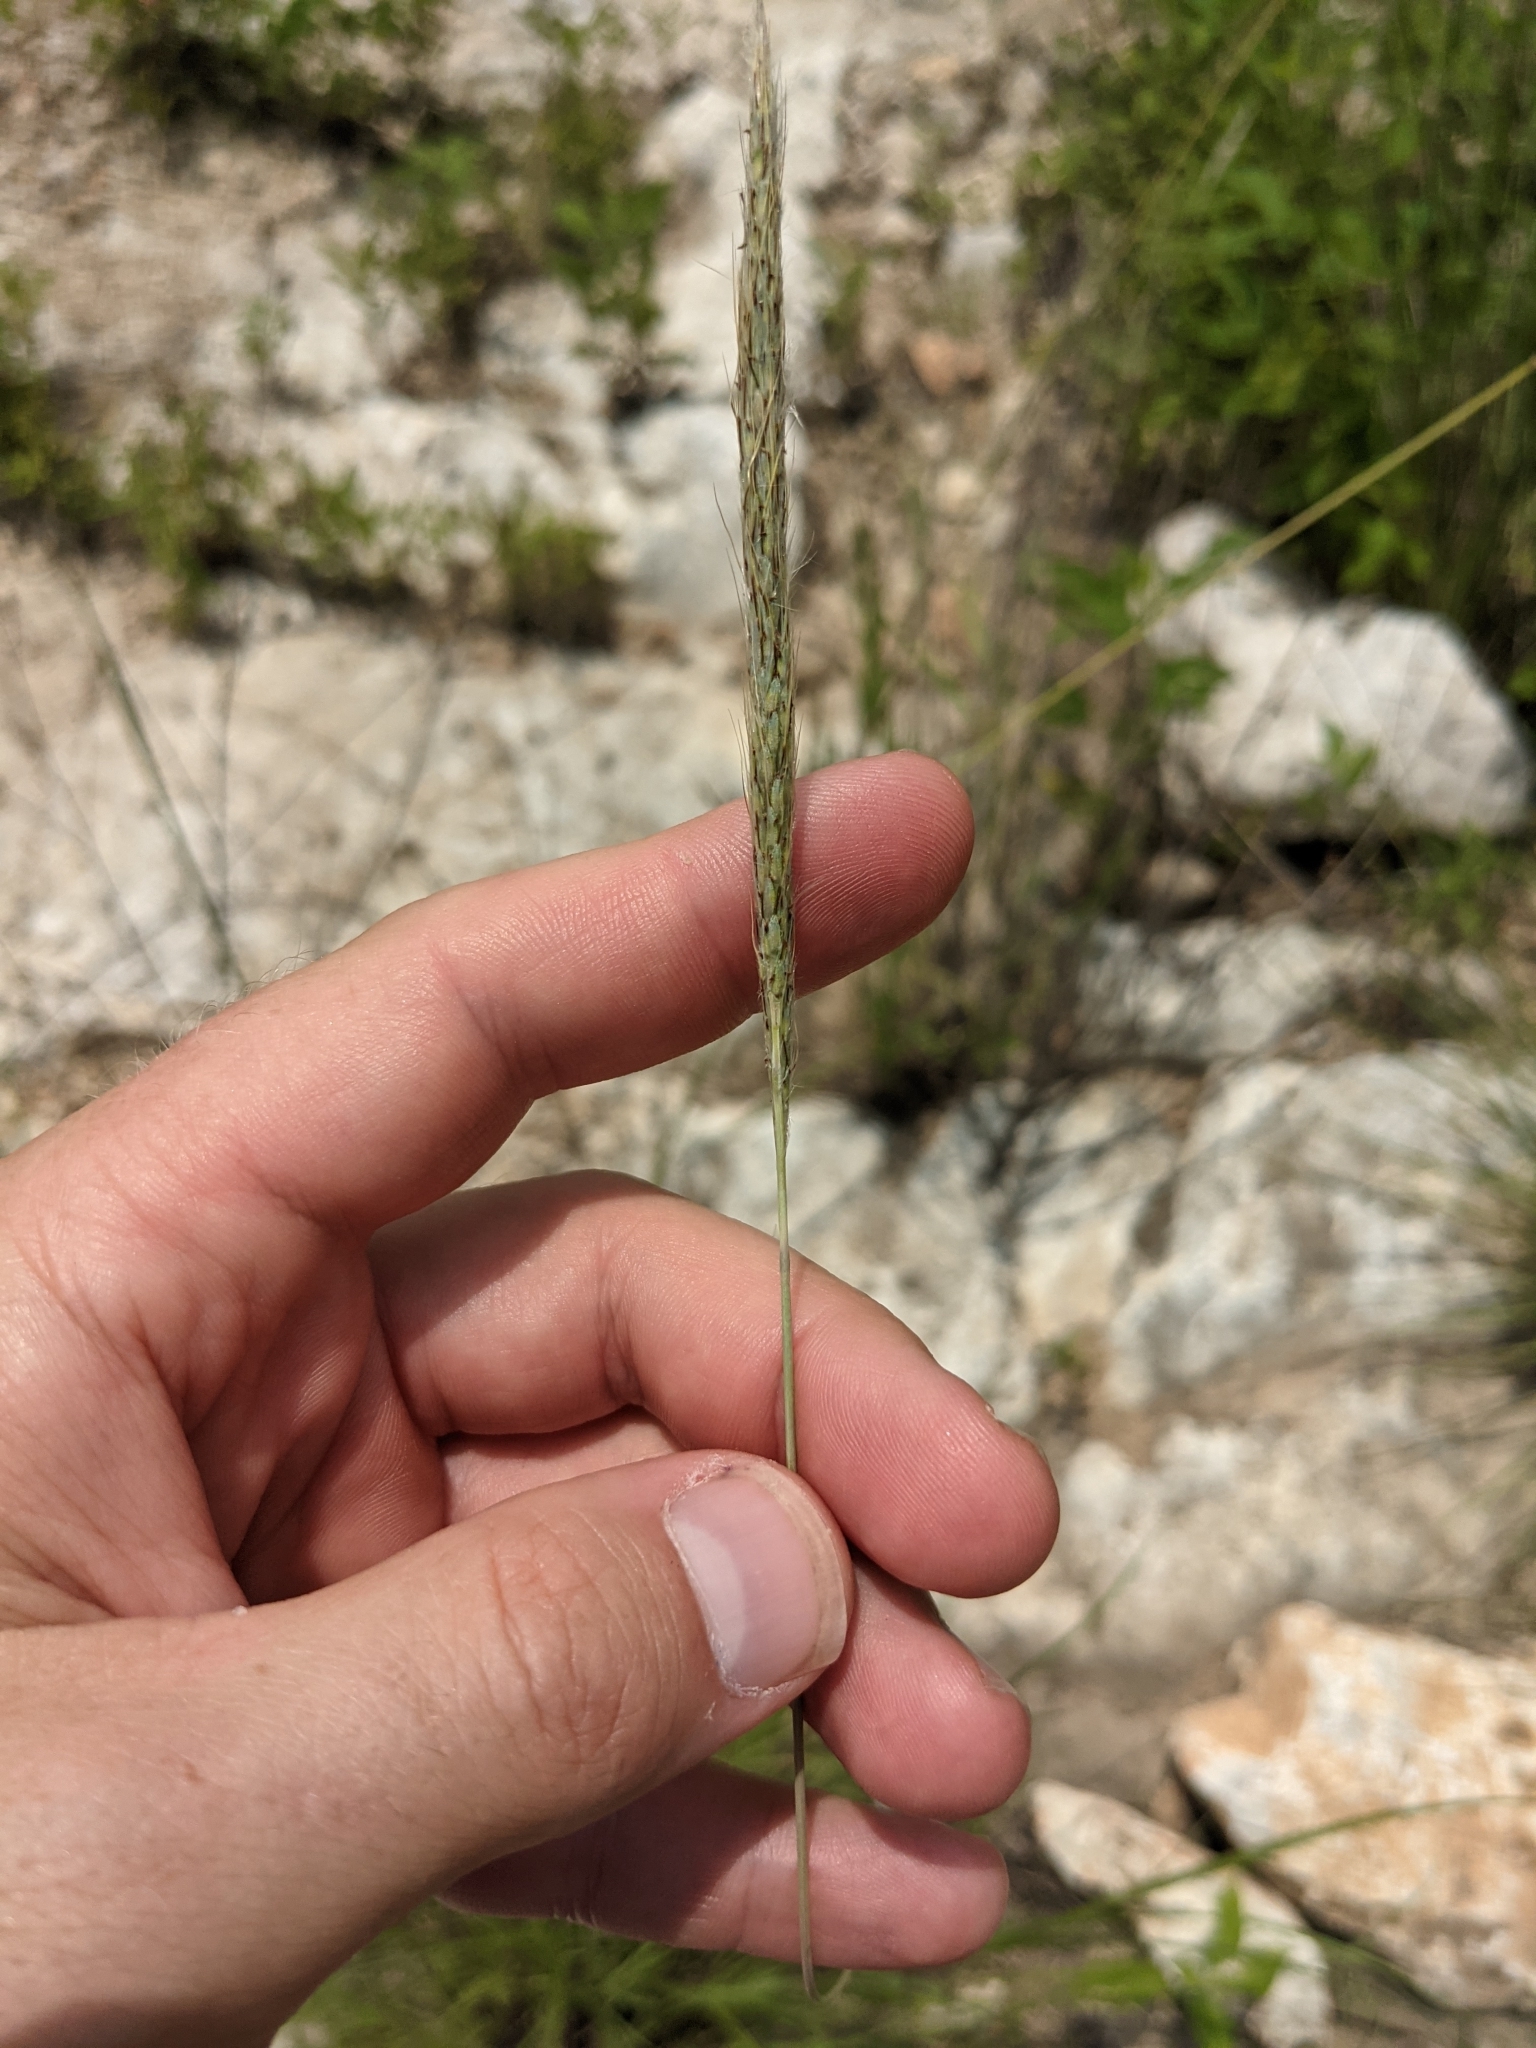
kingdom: Plantae
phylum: Tracheophyta
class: Liliopsida
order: Poales
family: Poaceae
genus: Bothriochloa
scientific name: Bothriochloa torreyana
